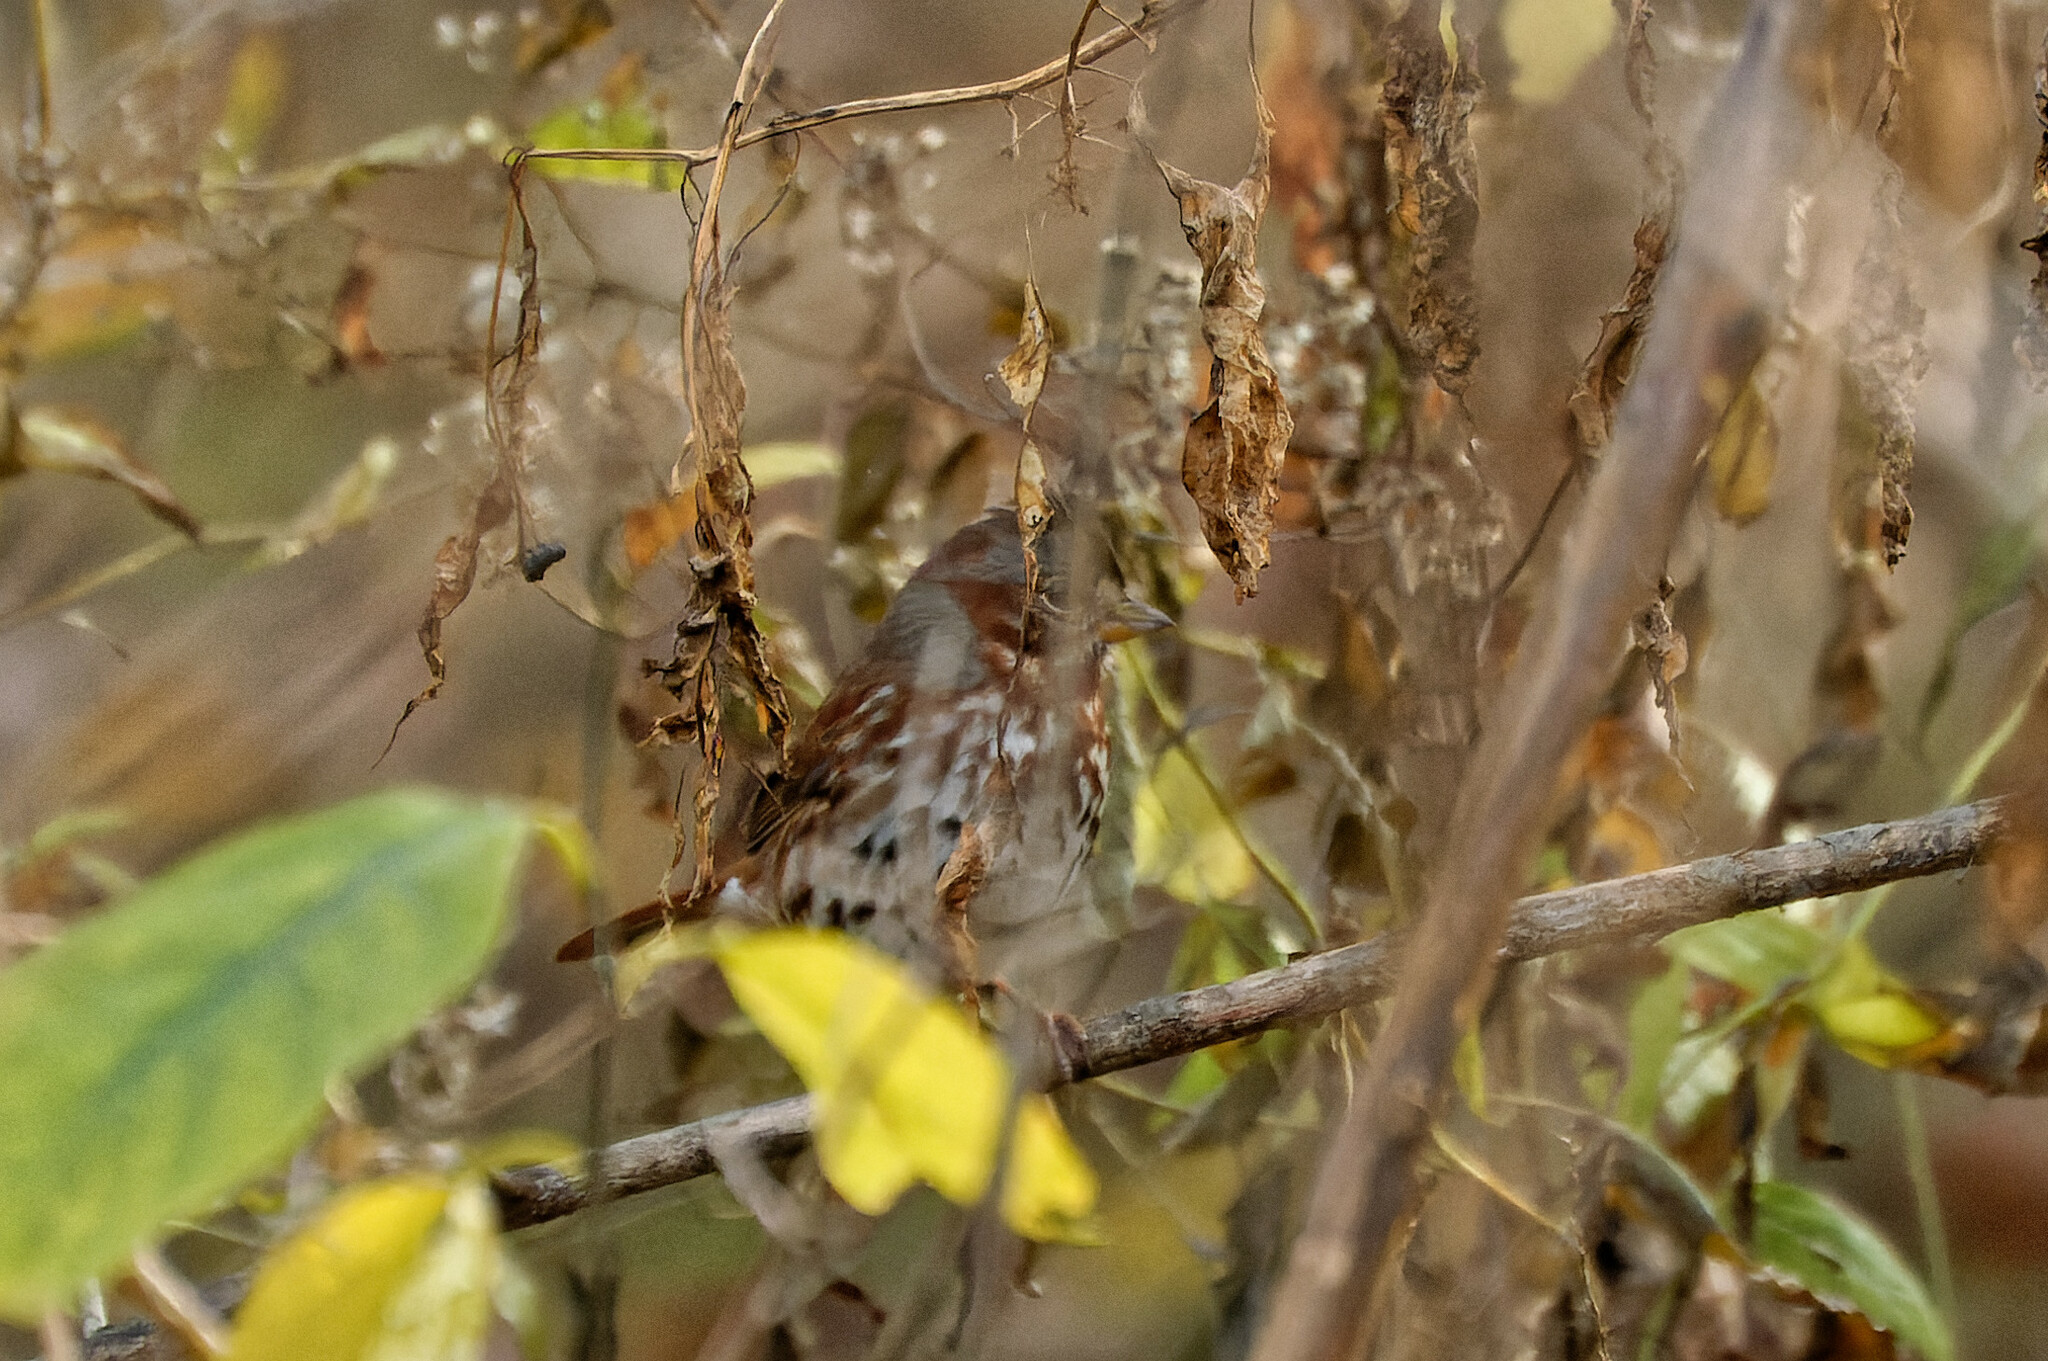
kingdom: Animalia
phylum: Chordata
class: Aves
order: Passeriformes
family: Passerellidae
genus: Passerella
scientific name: Passerella iliaca
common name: Fox sparrow
